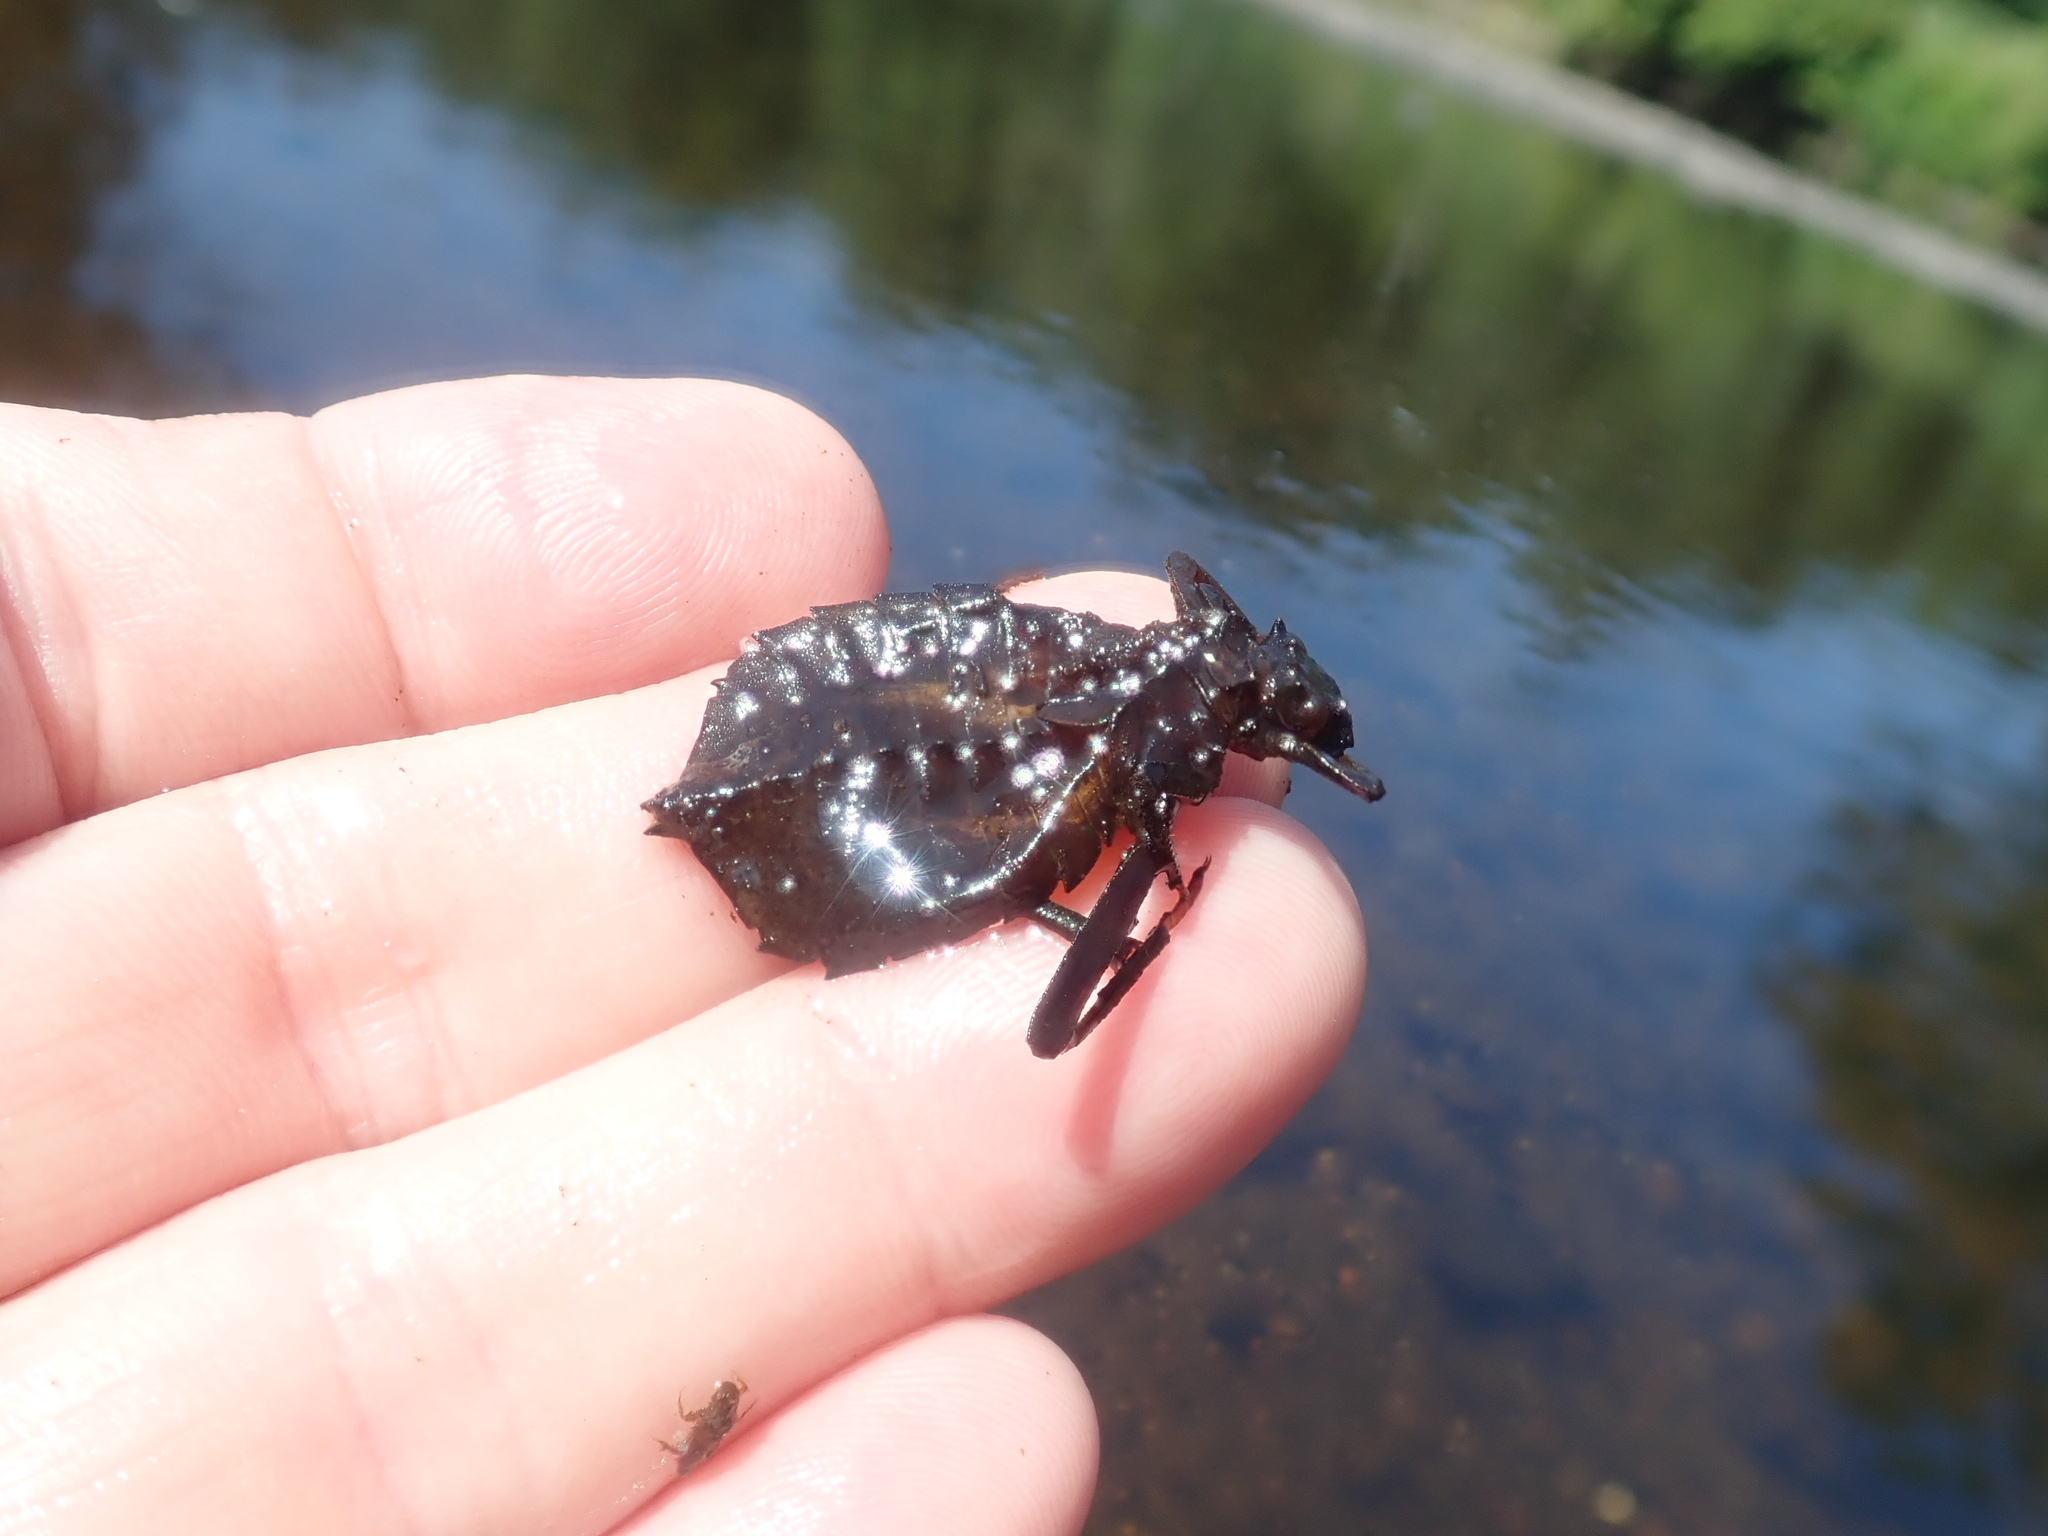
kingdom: Animalia
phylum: Arthropoda
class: Insecta
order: Odonata
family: Gomphidae
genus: Hagenius
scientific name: Hagenius brevistylus
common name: Dragonhunter
